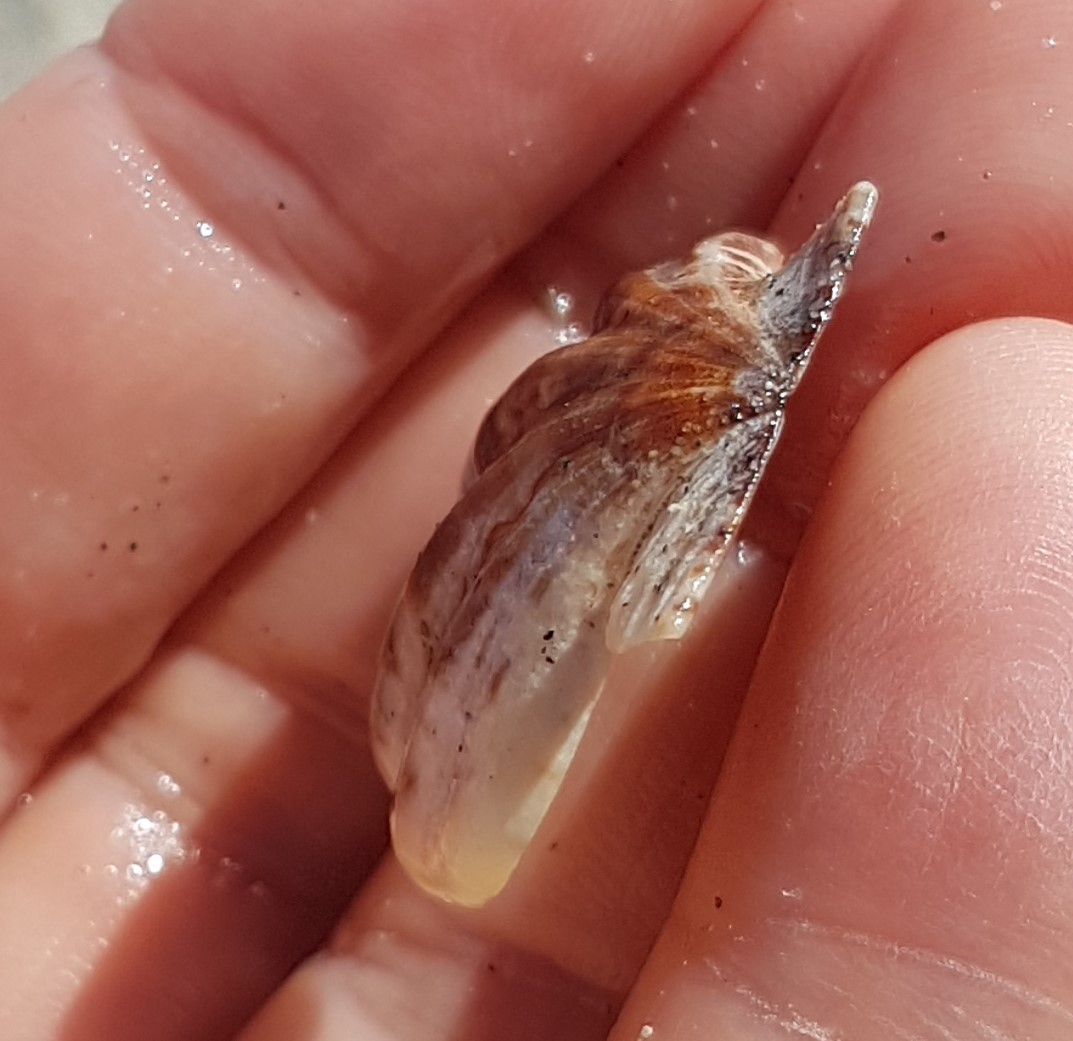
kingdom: Animalia
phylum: Mollusca
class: Bivalvia
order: Pectinida
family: Pectinidae
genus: Flexopecten
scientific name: Flexopecten flexuosus
